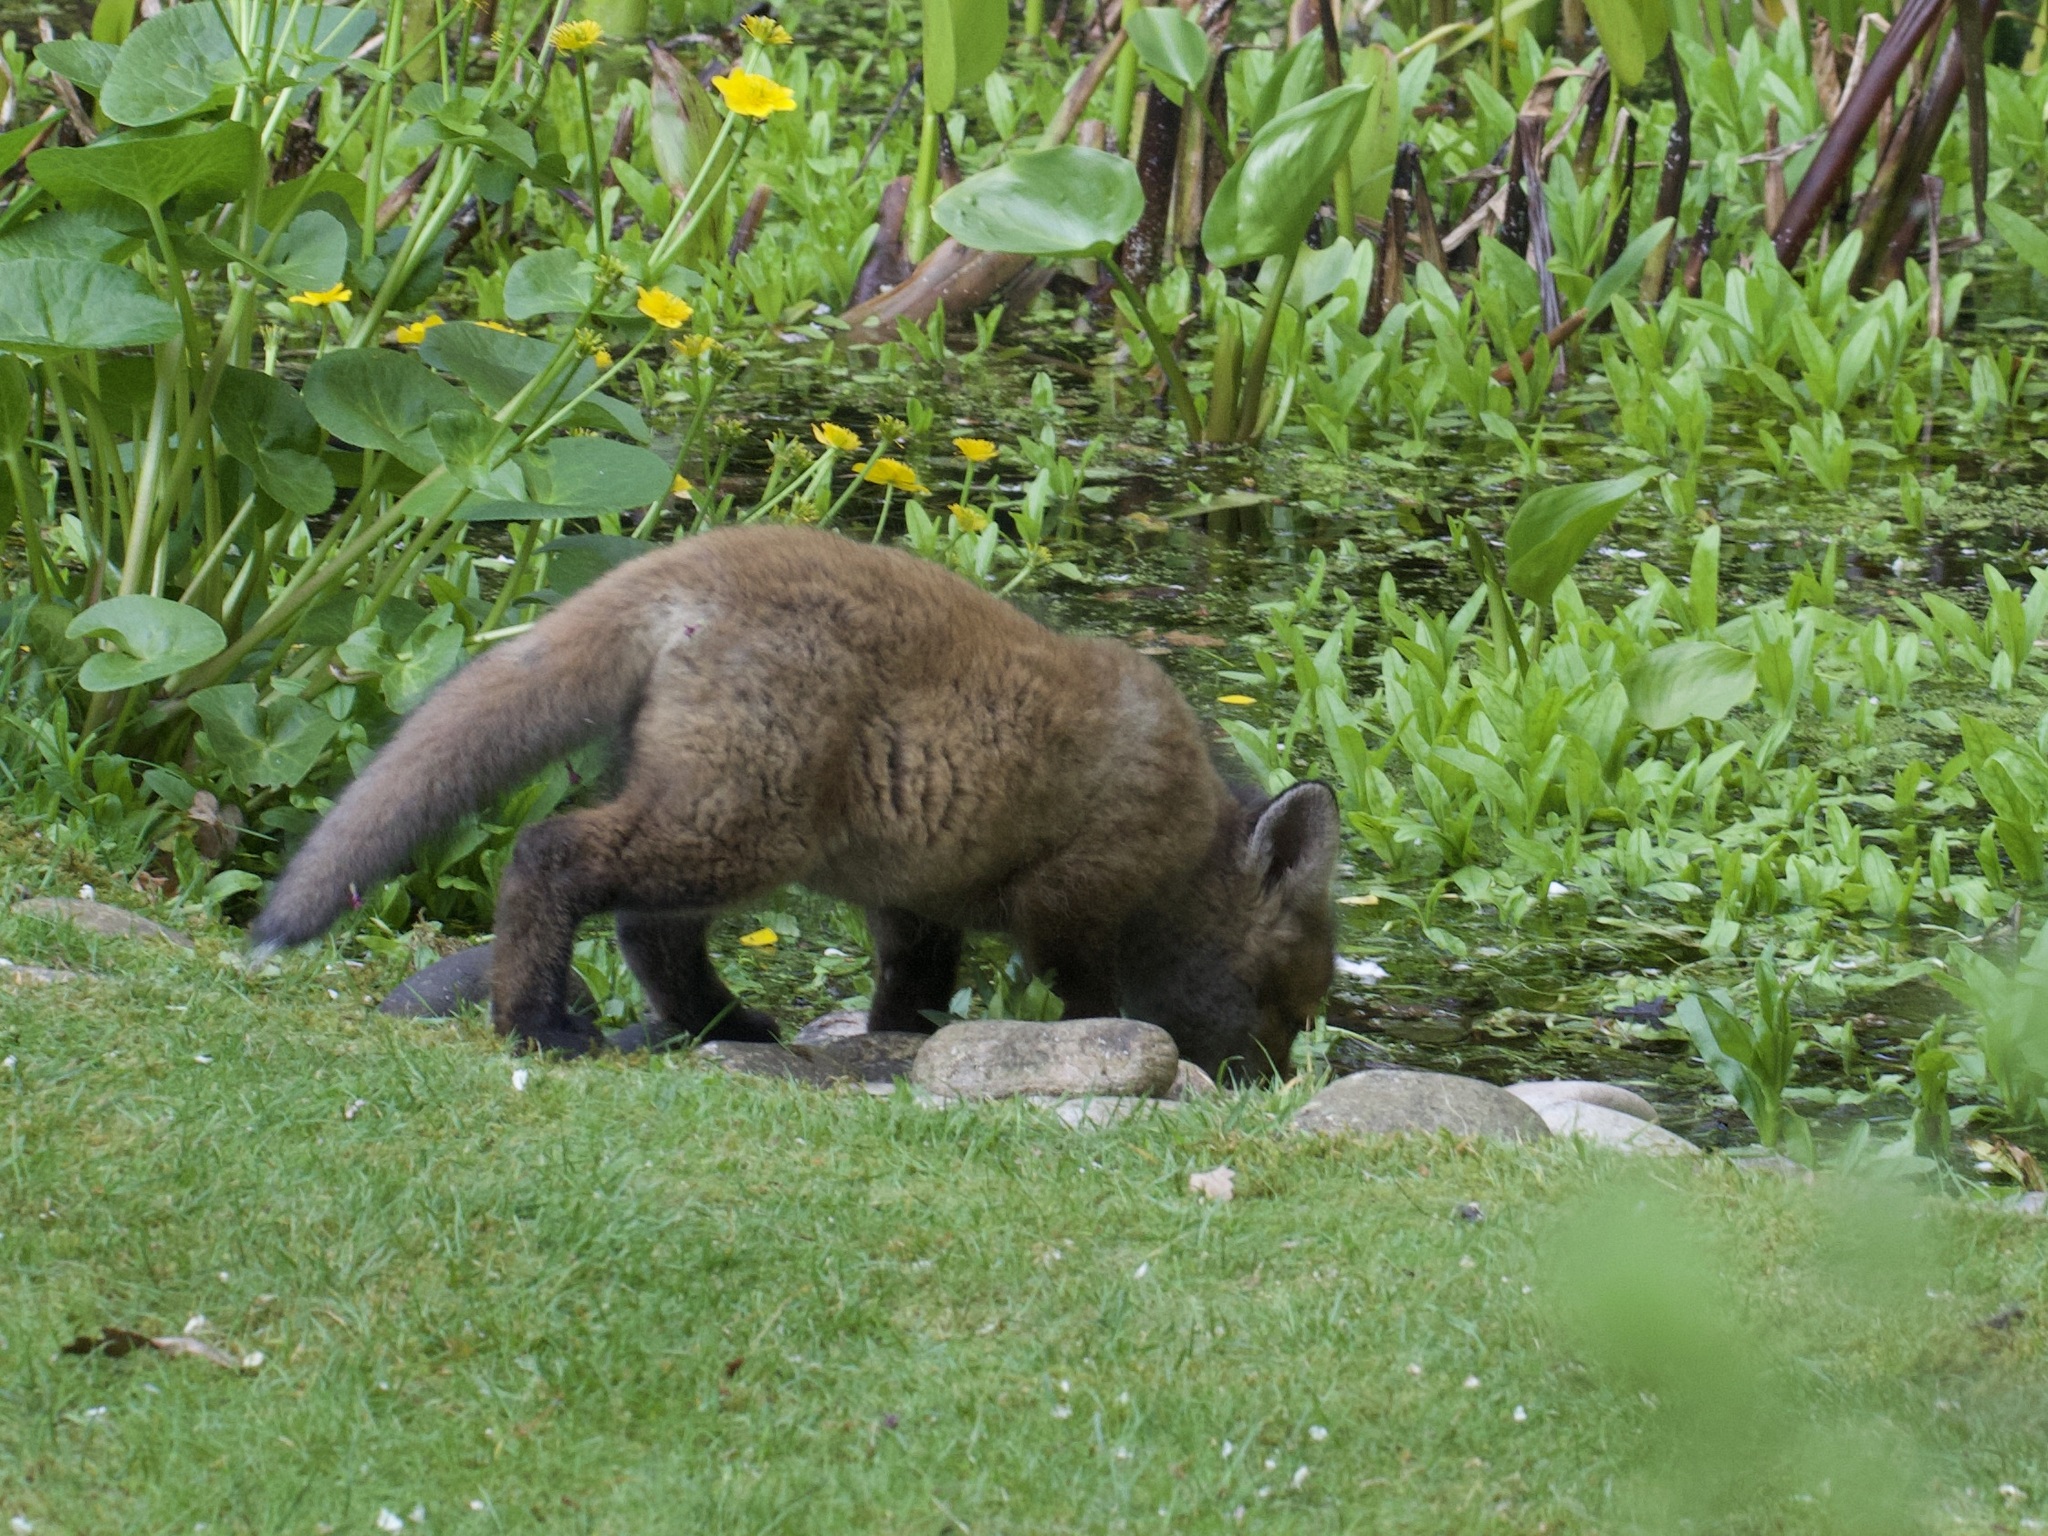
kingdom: Animalia
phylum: Chordata
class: Mammalia
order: Carnivora
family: Canidae
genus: Vulpes
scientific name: Vulpes vulpes
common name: Red fox
